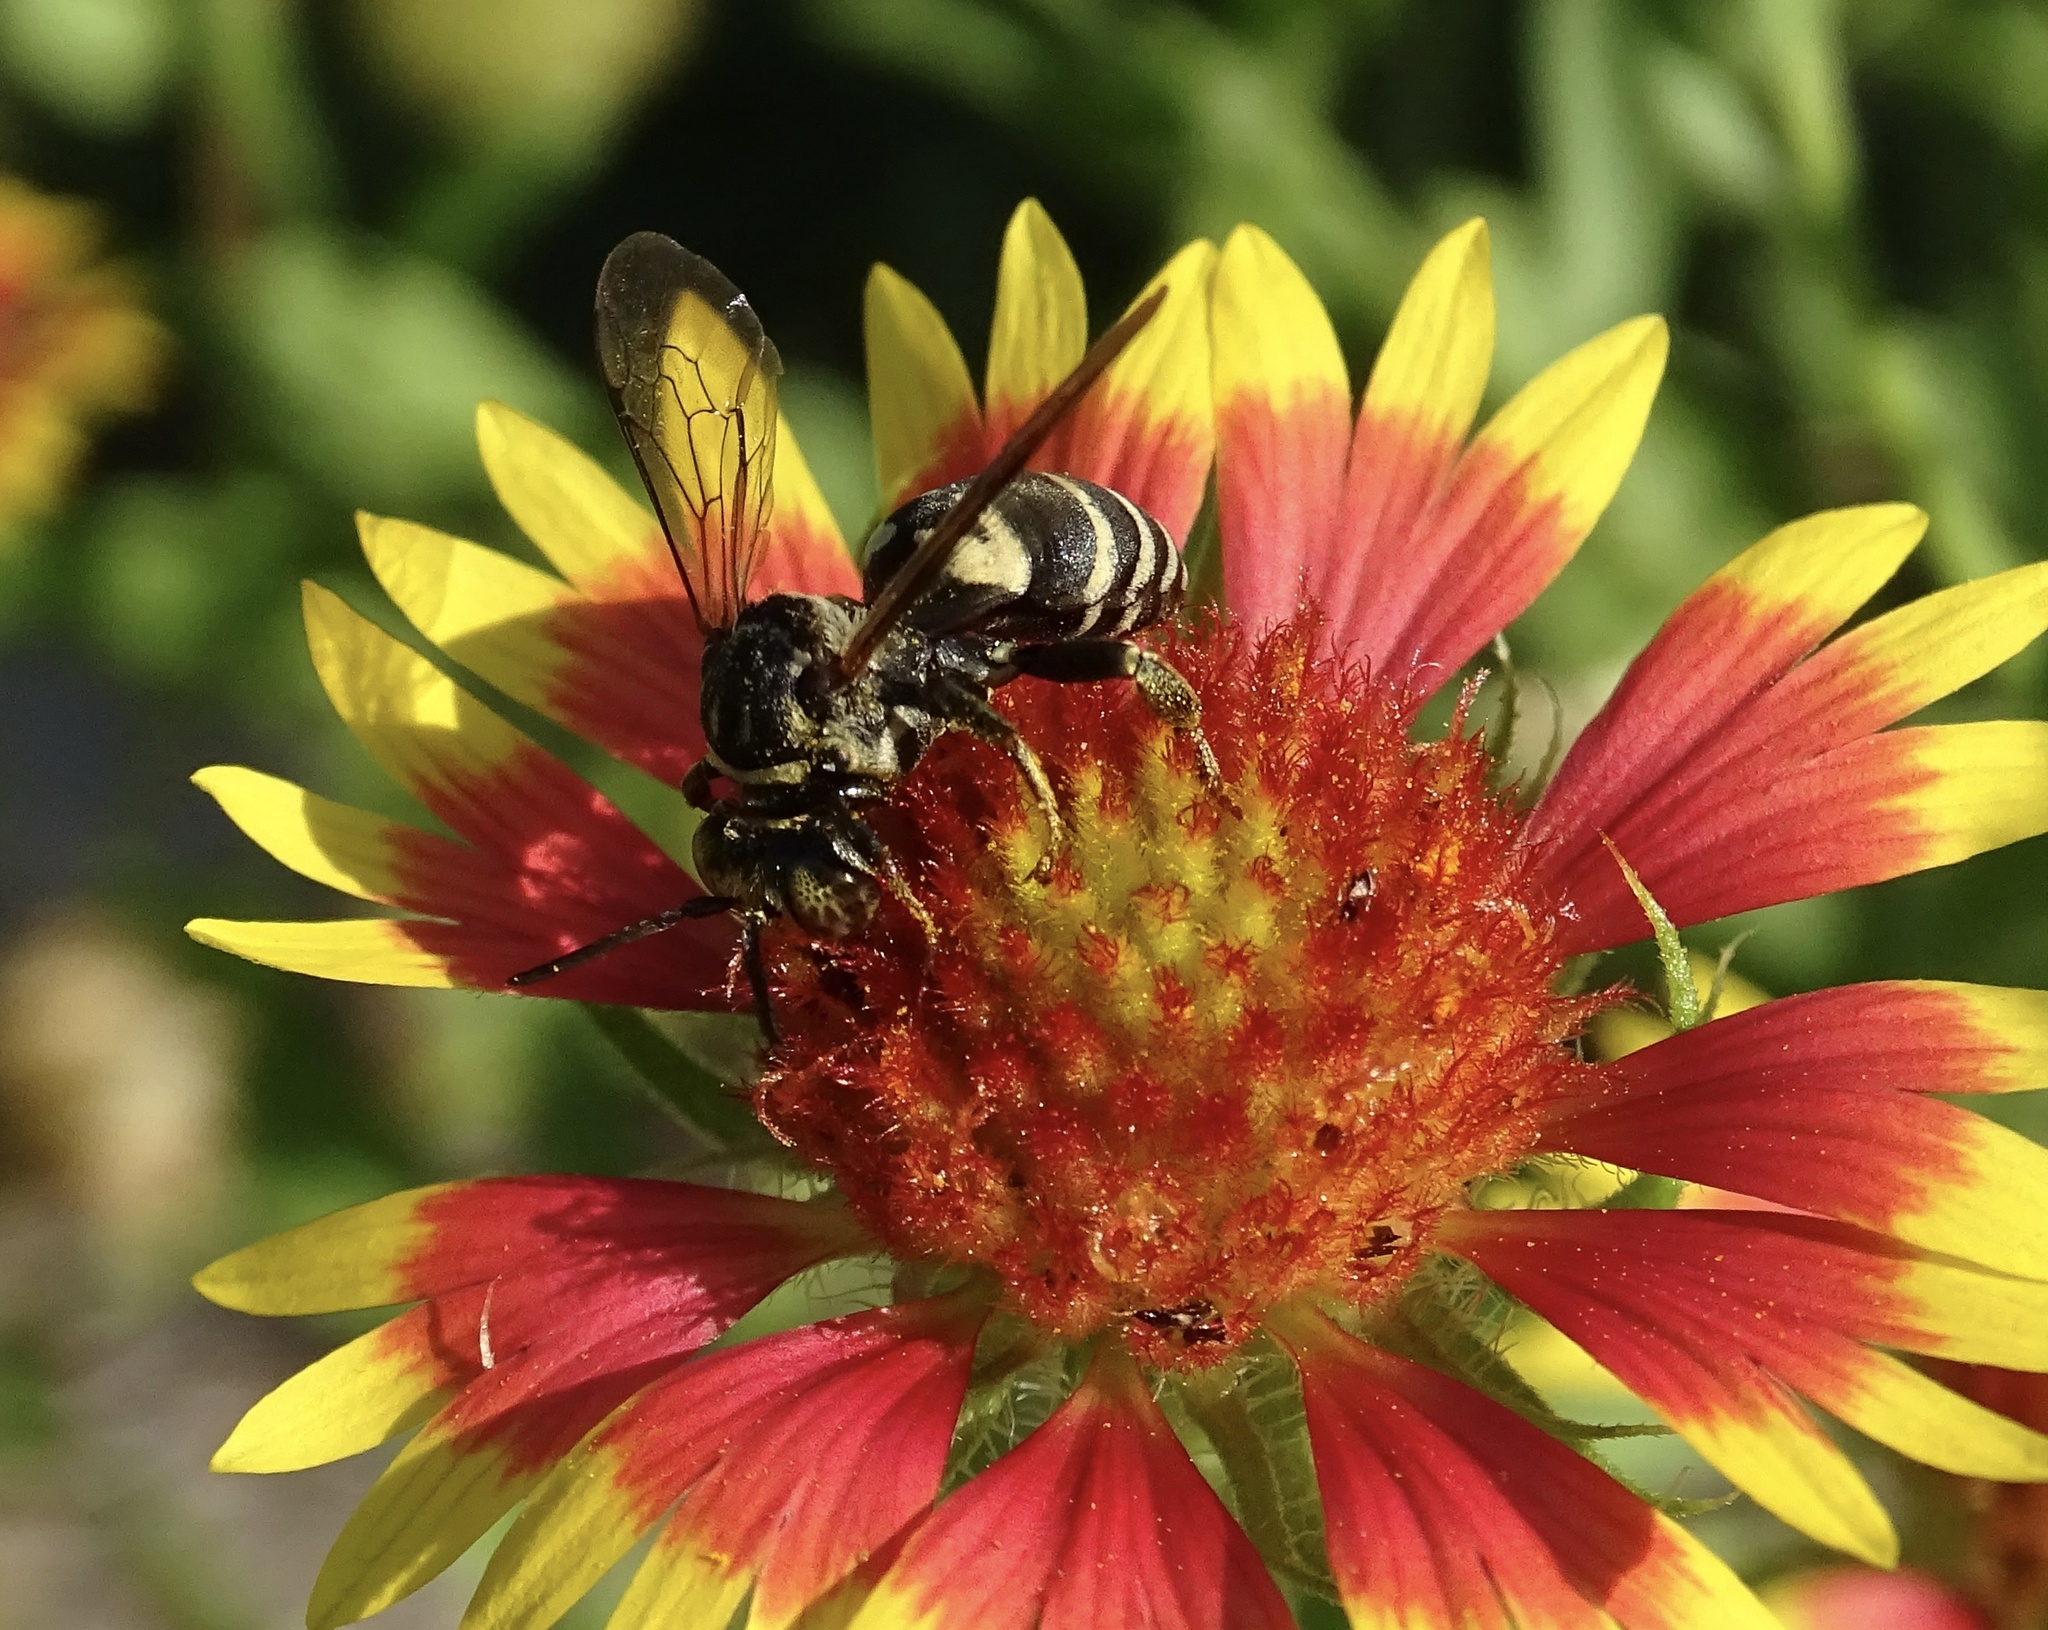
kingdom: Animalia
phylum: Arthropoda
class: Insecta
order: Hymenoptera
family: Apidae
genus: Triepeolus
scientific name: Triepeolus lunatus
